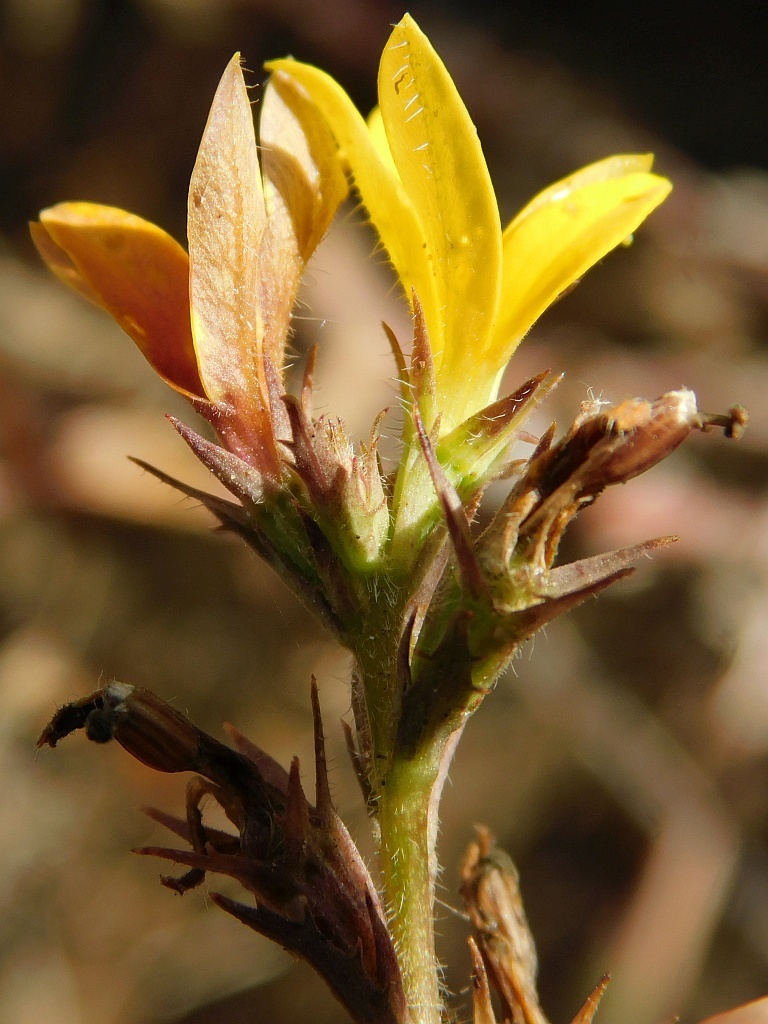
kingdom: Plantae
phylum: Tracheophyta
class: Magnoliopsida
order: Asterales
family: Campanulaceae
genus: Monopsis
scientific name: Monopsis lutea
